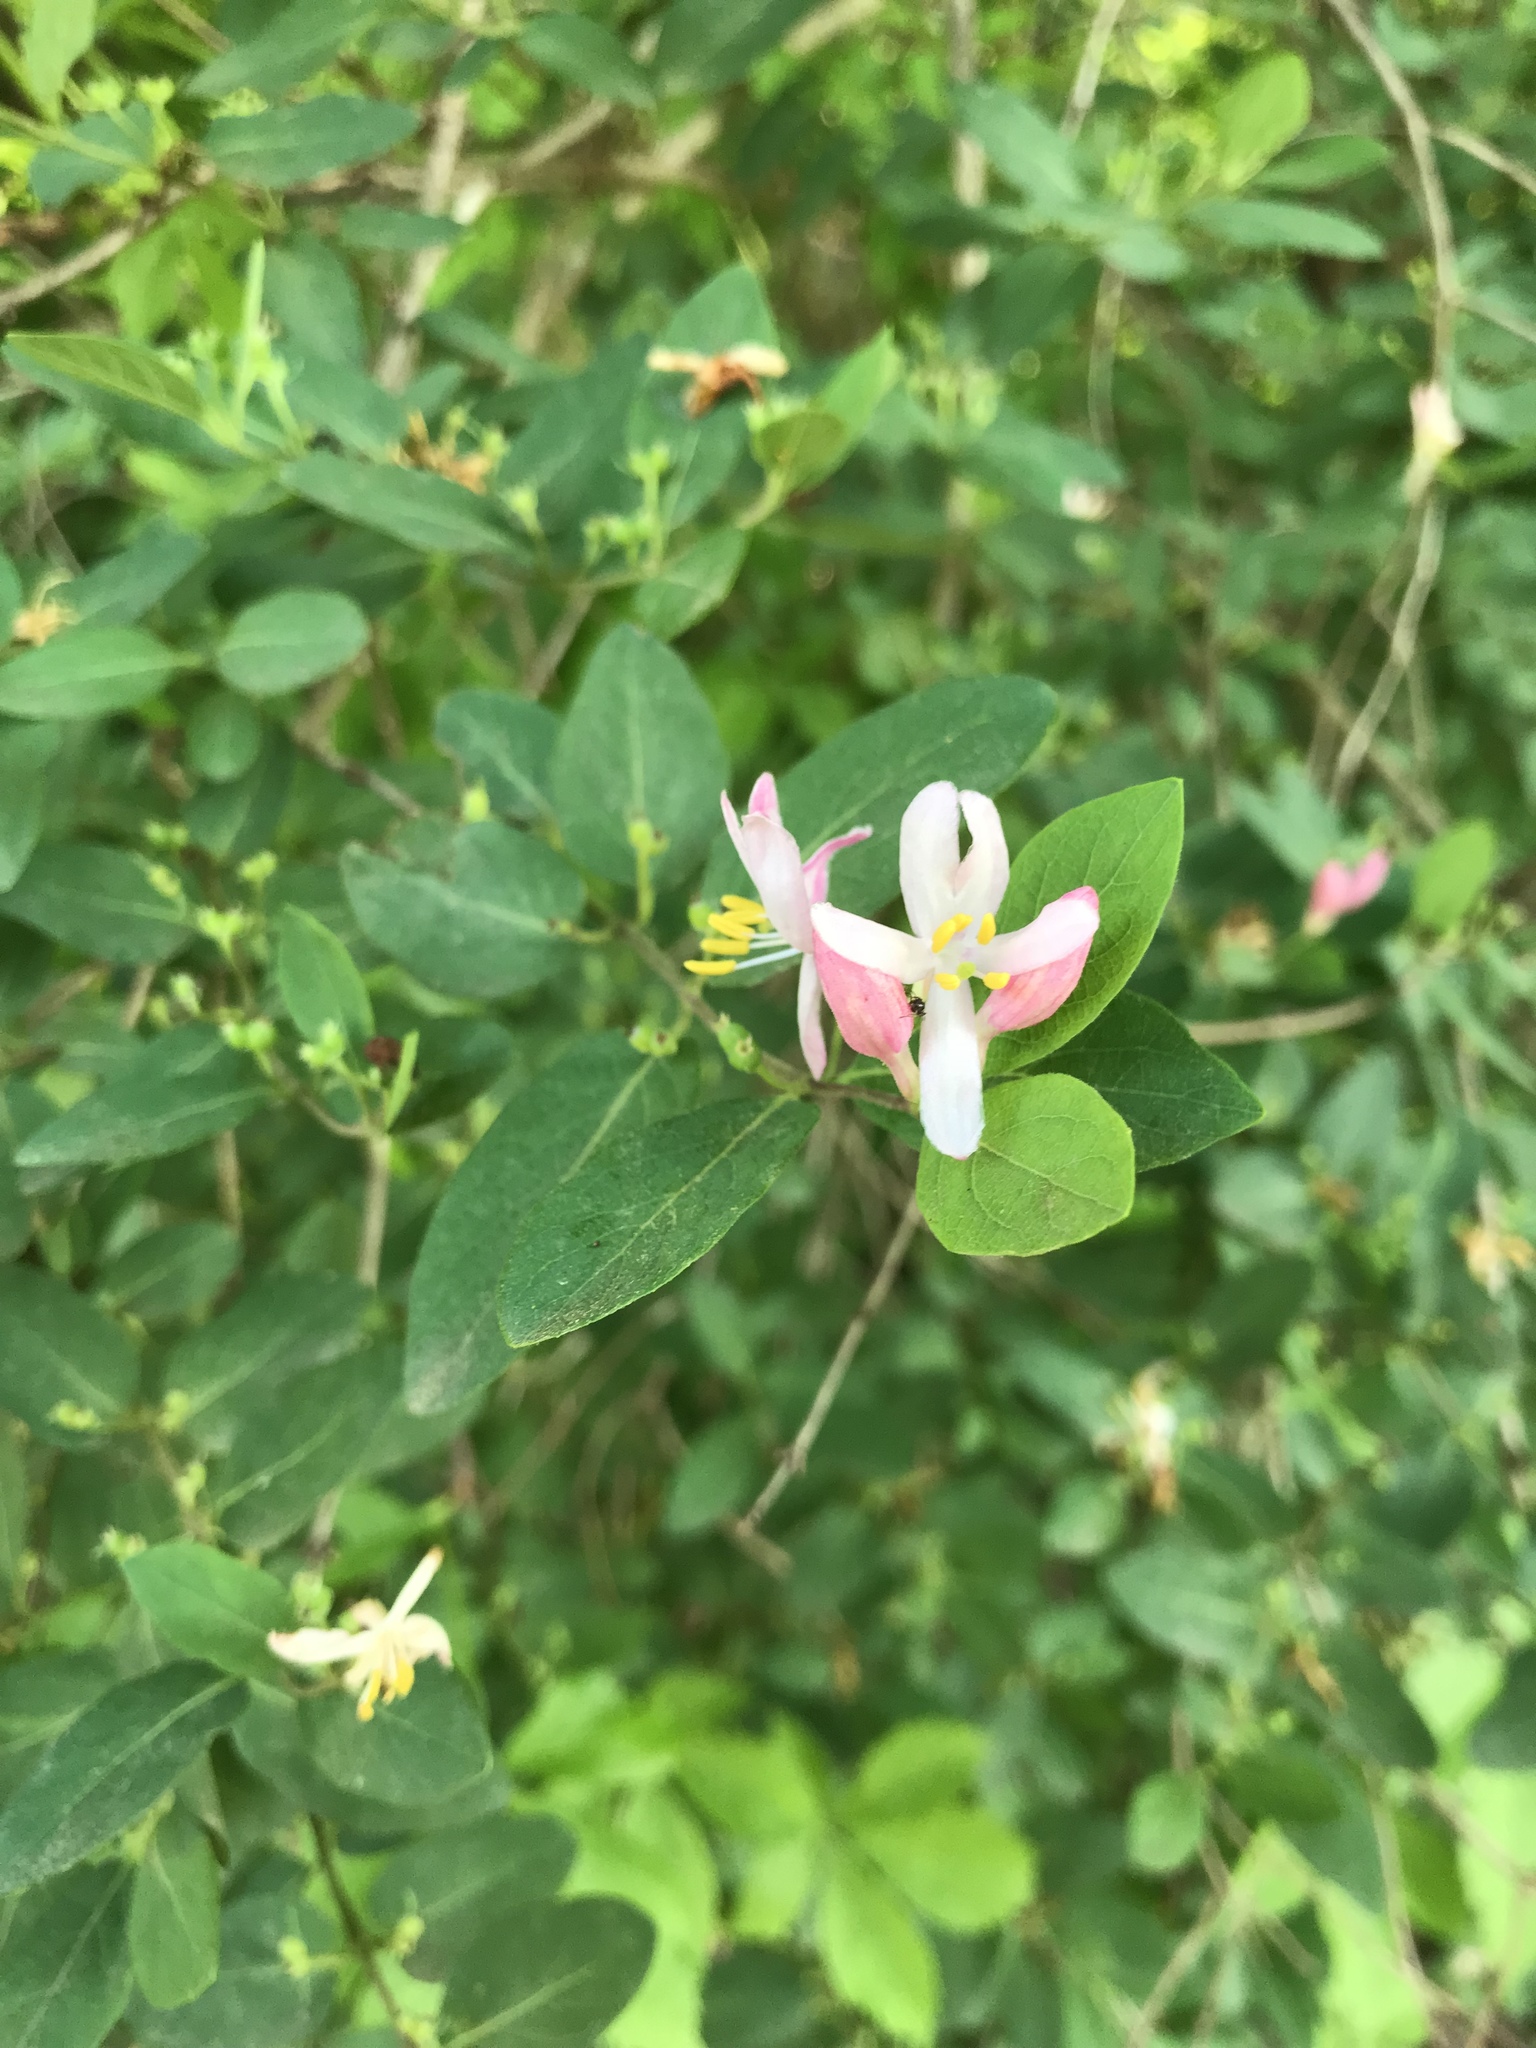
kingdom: Plantae
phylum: Tracheophyta
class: Magnoliopsida
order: Dipsacales
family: Caprifoliaceae
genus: Lonicera
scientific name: Lonicera bella
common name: Bell's honeysuckle
